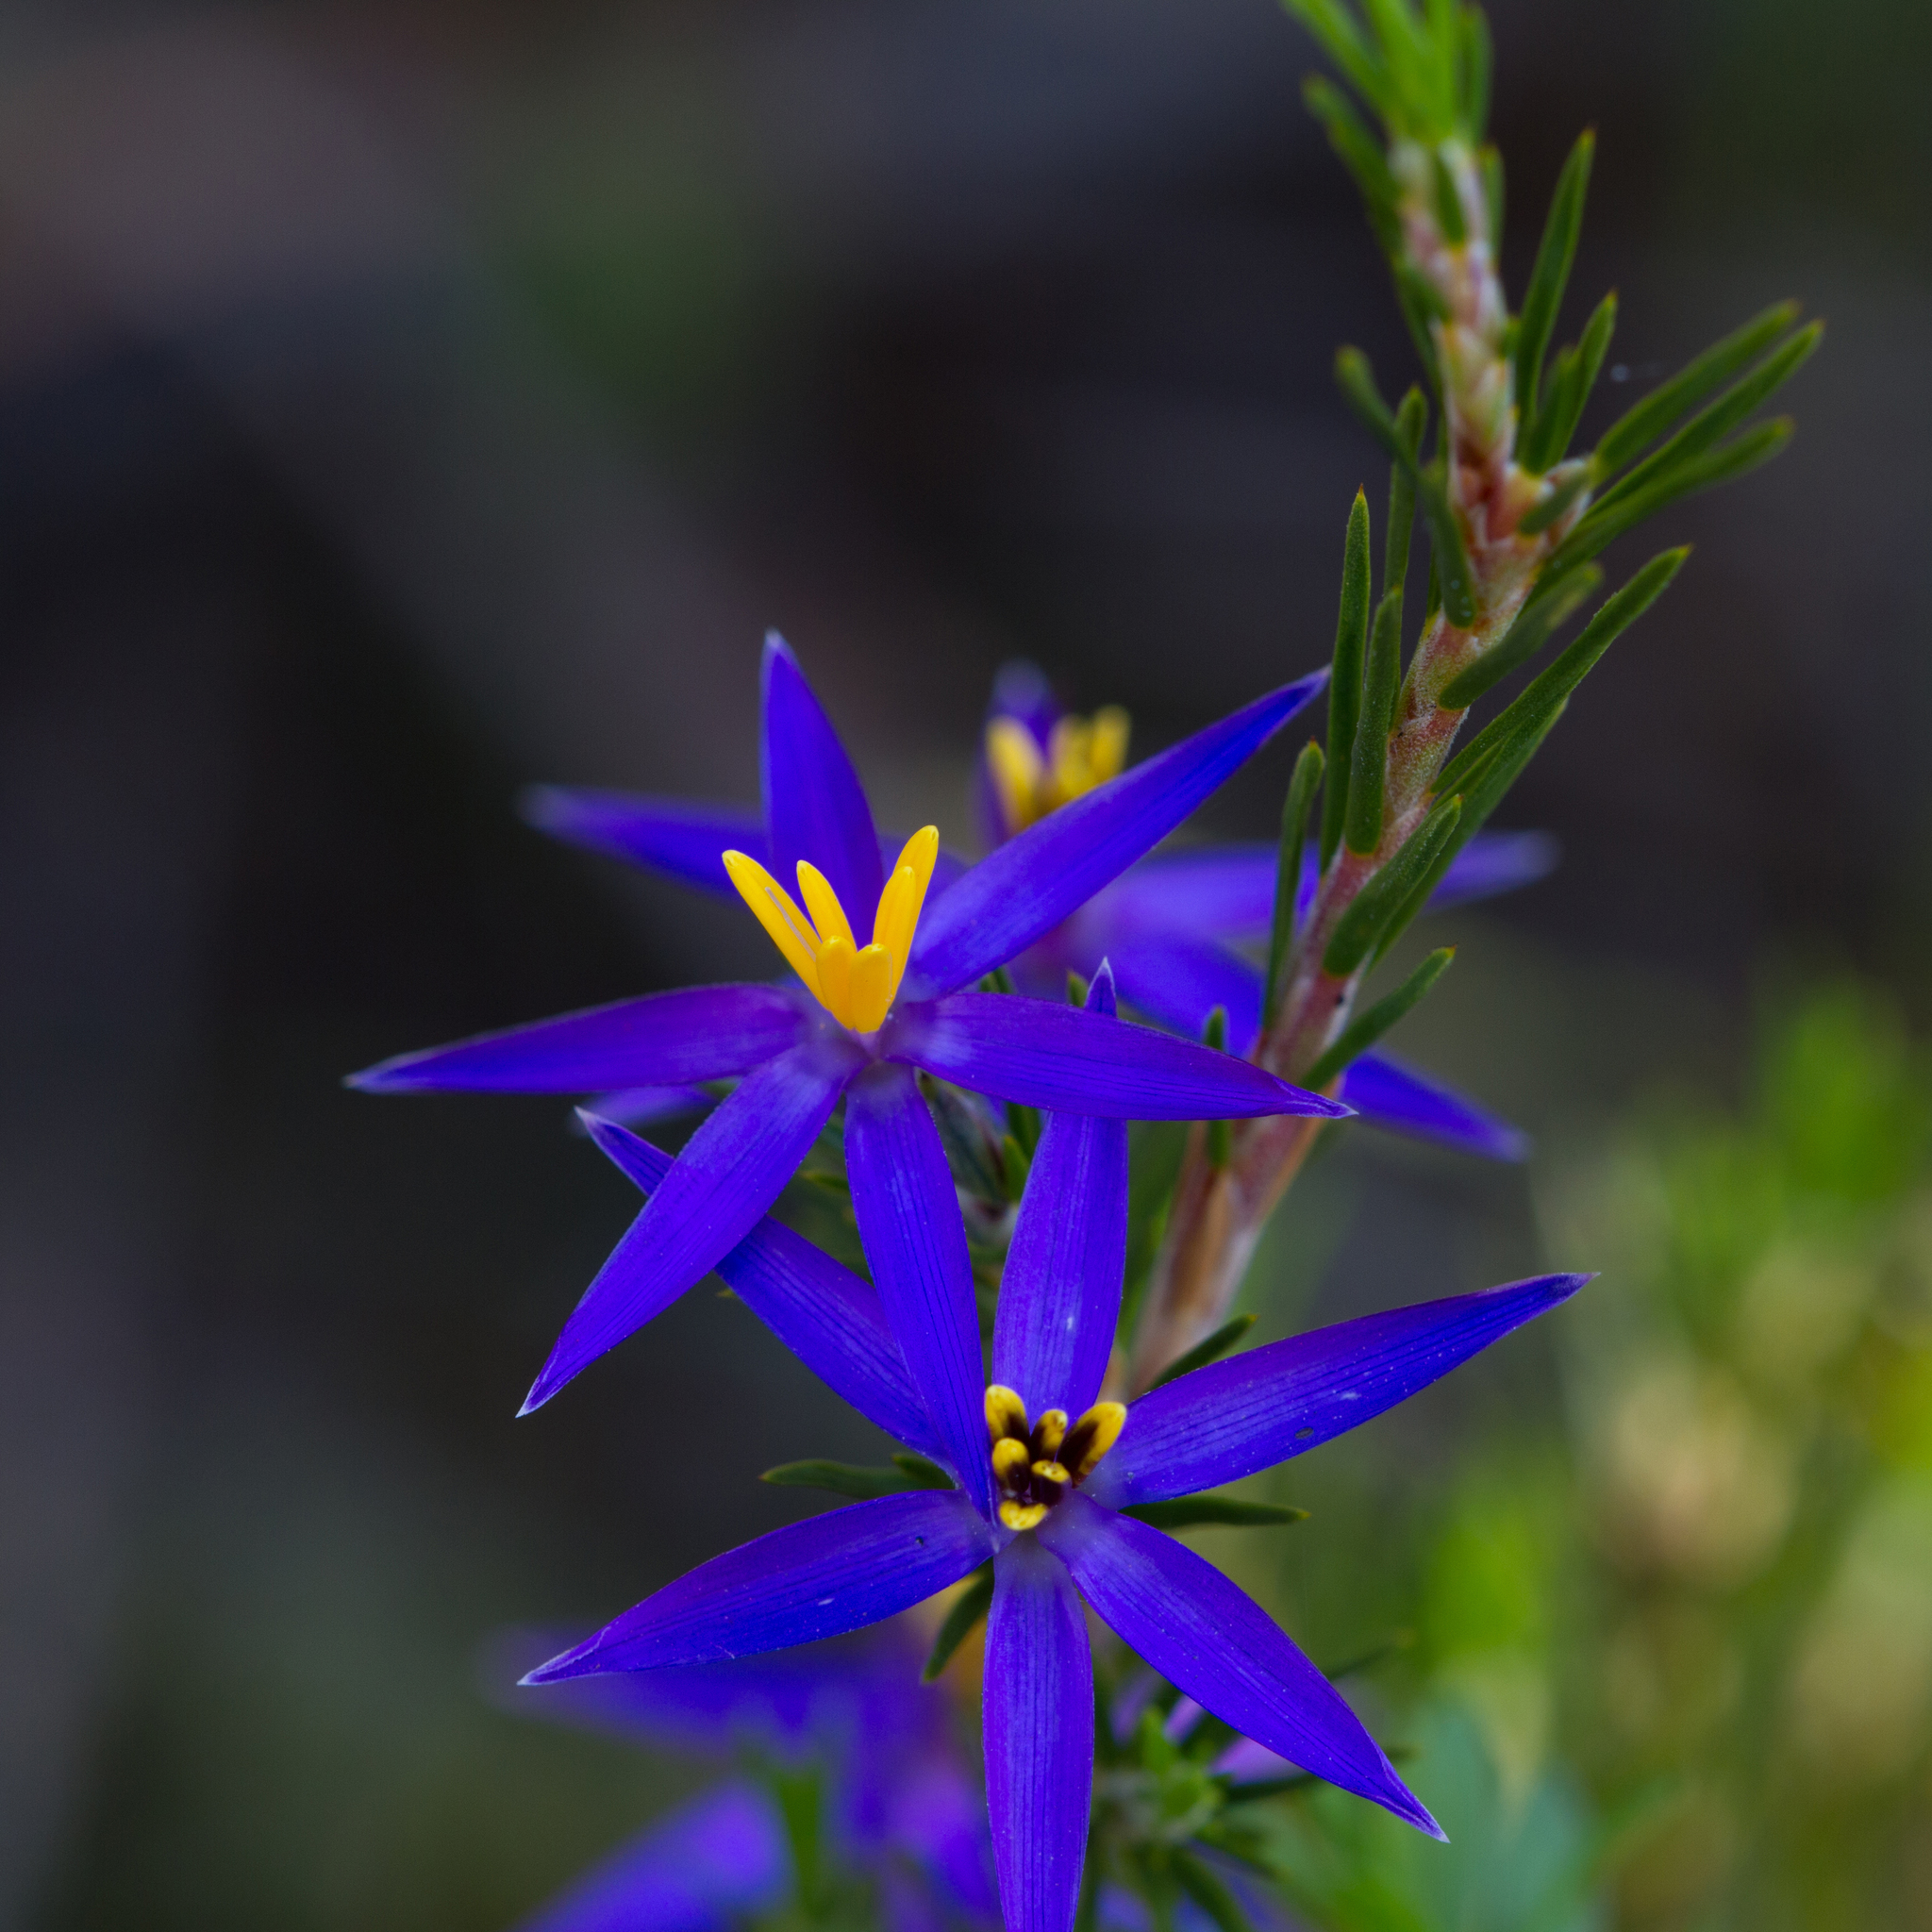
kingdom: Plantae
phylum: Tracheophyta
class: Liliopsida
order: Arecales
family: Dasypogonaceae
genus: Calectasia
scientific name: Calectasia intermedia
